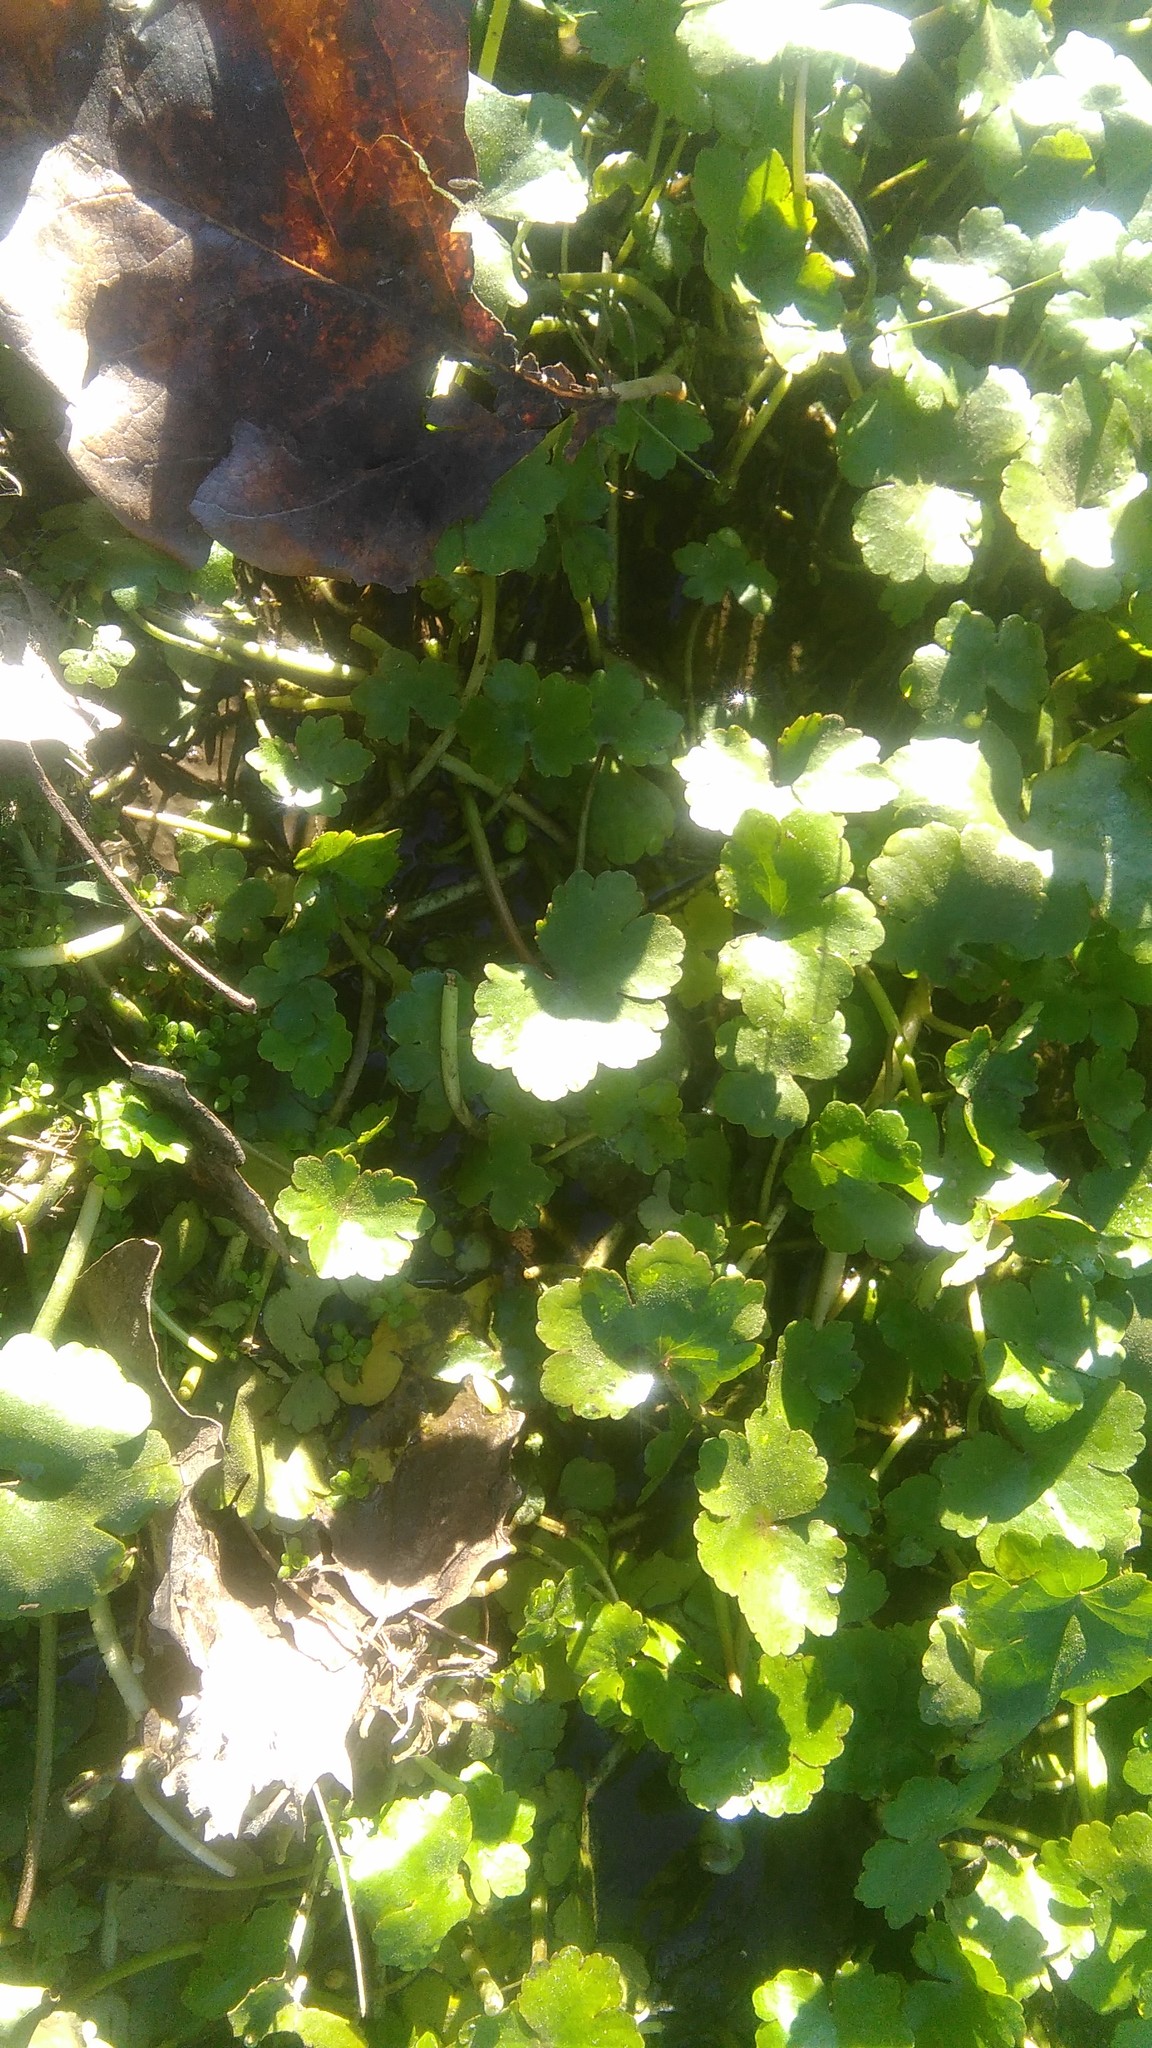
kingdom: Plantae
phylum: Tracheophyta
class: Magnoliopsida
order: Apiales
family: Araliaceae
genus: Hydrocotyle
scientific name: Hydrocotyle ranunculoides
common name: Floating pennywort
